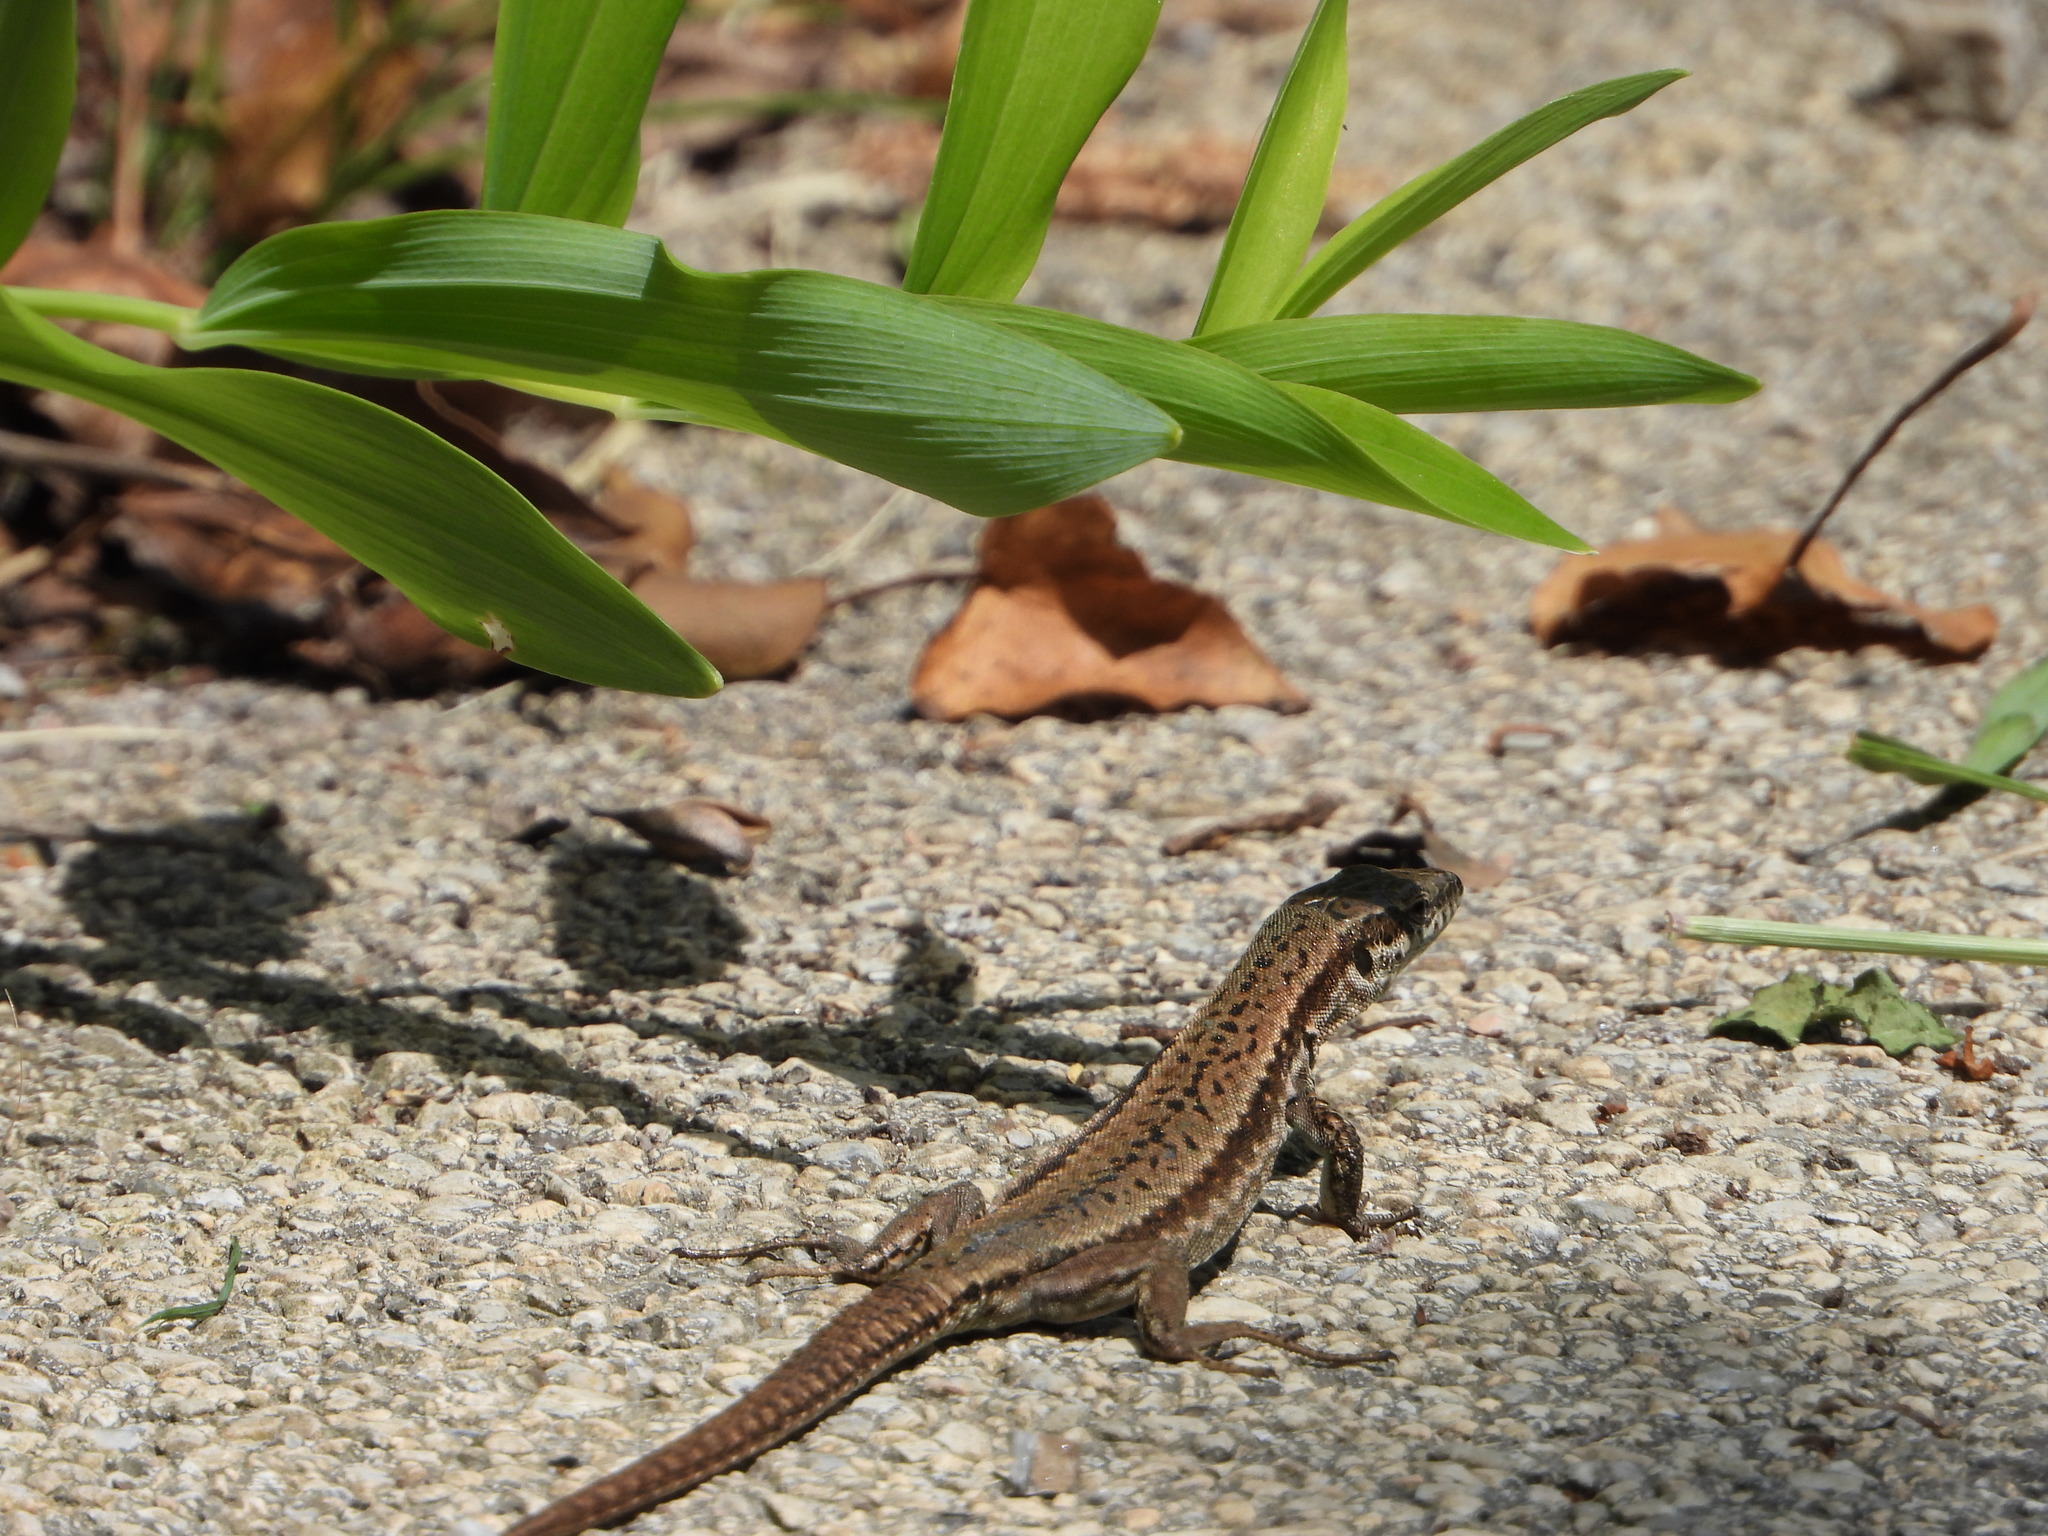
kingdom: Animalia
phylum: Chordata
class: Squamata
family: Lacertidae
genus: Podarcis
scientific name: Podarcis muralis
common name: Common wall lizard
